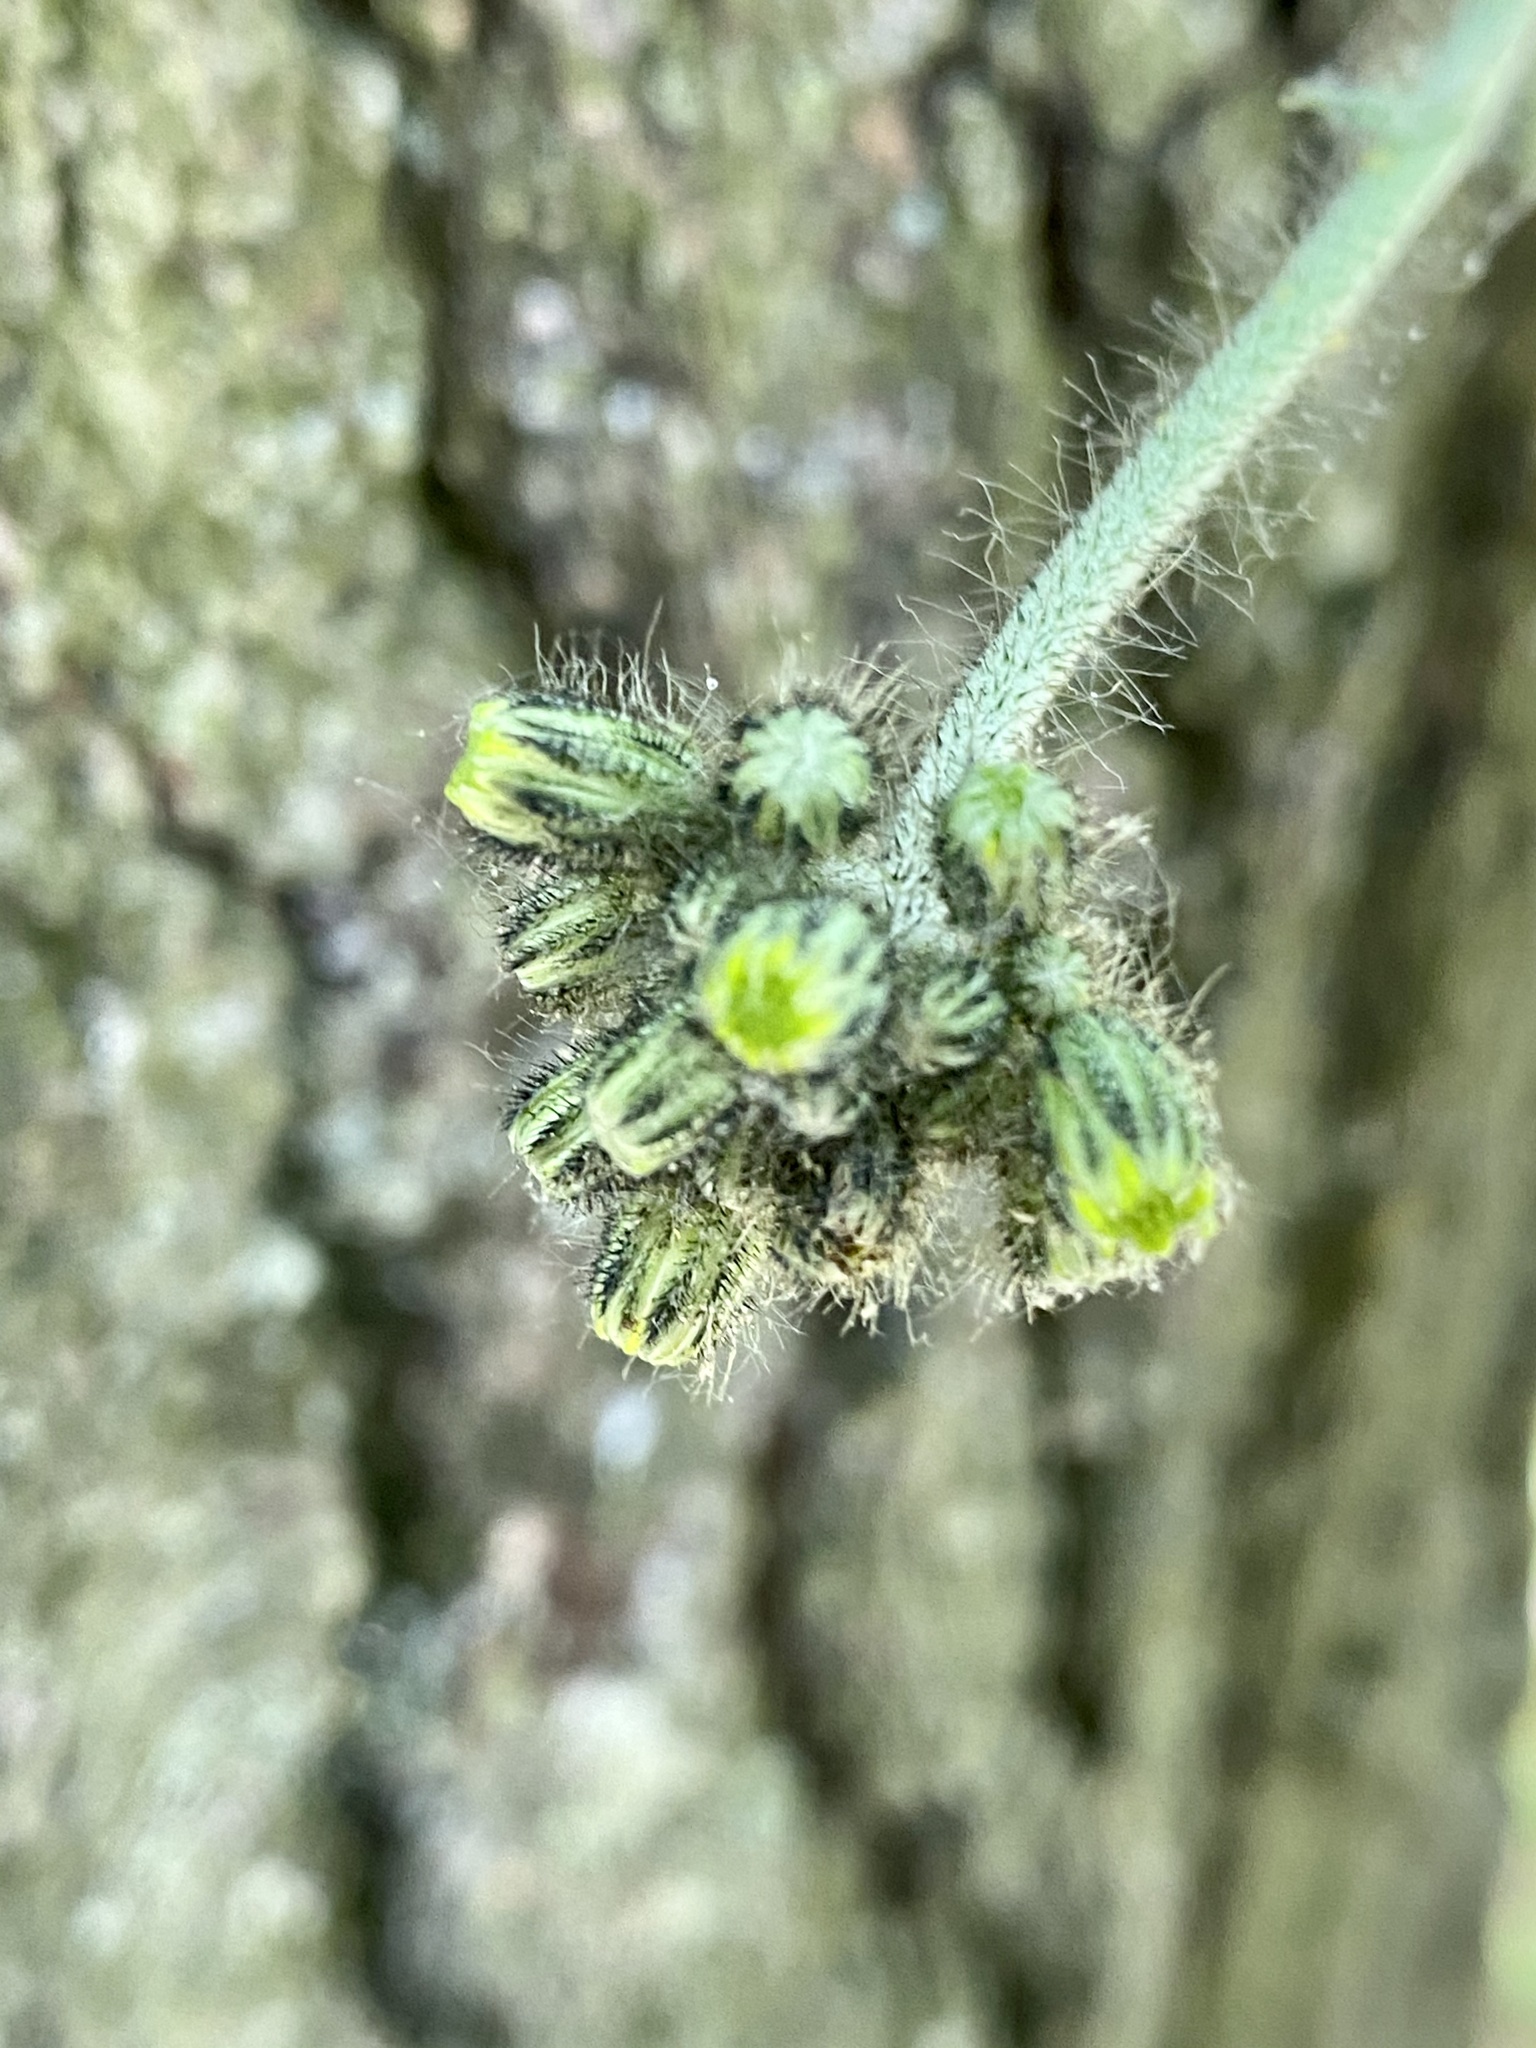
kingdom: Plantae
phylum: Tracheophyta
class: Magnoliopsida
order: Asterales
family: Asteraceae
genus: Pilosella
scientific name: Pilosella caespitosa
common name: Yellow fox-and-cubs
